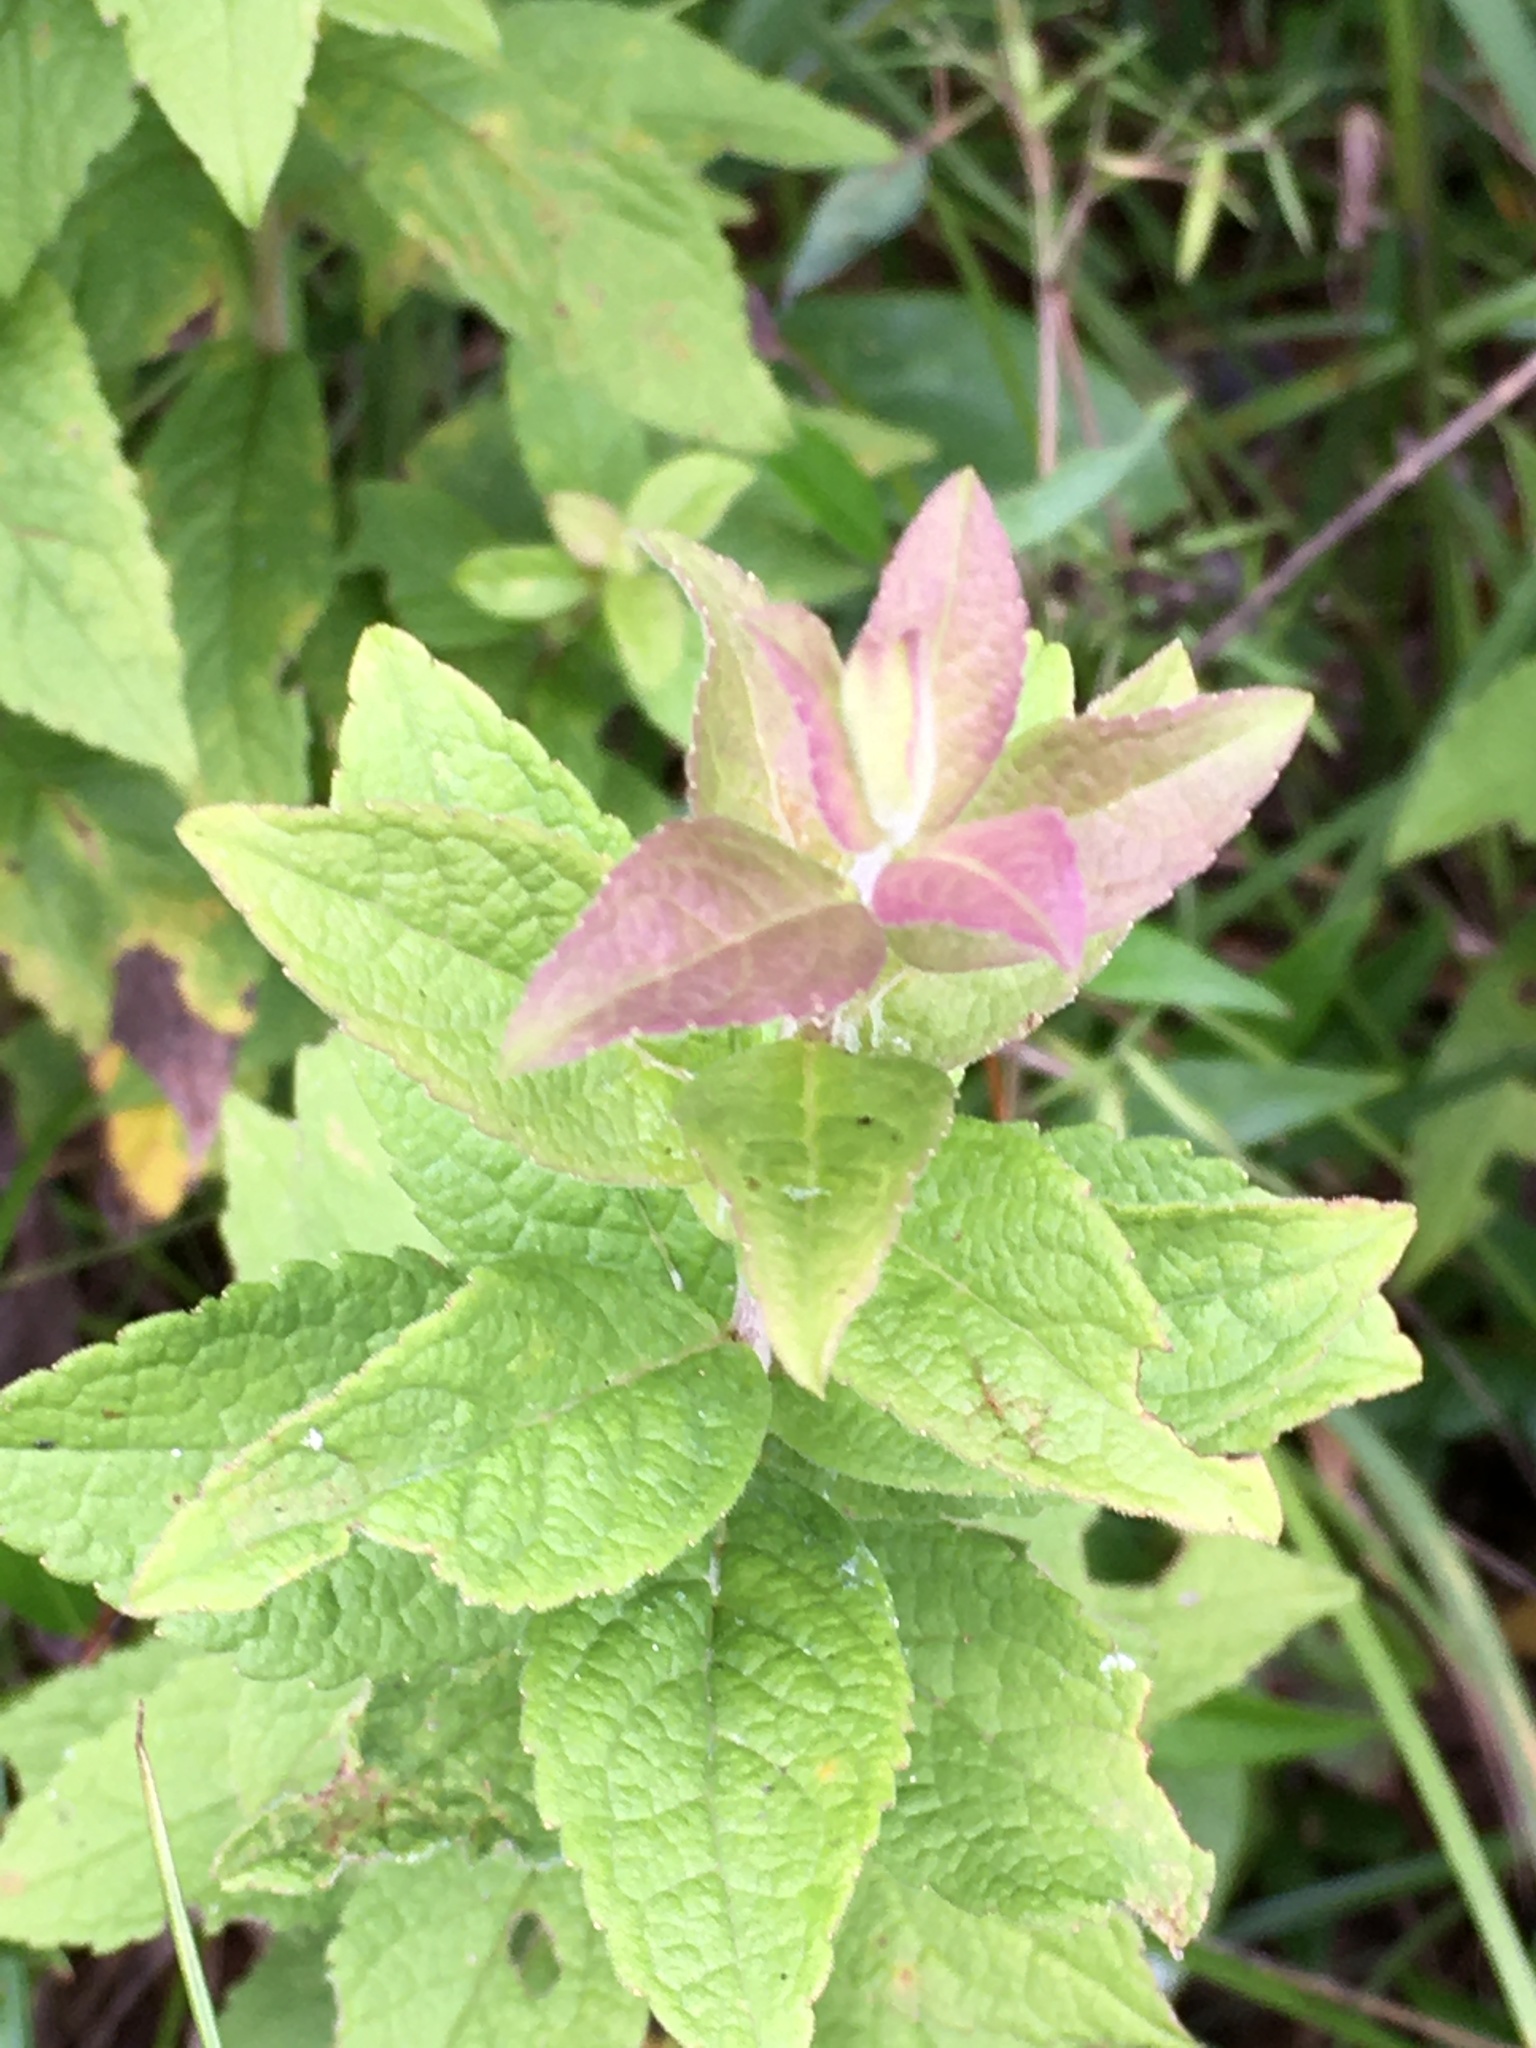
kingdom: Plantae
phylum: Tracheophyta
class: Magnoliopsida
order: Asterales
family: Asteraceae
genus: Solidago
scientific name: Solidago rugosa
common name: Rough-stemmed goldenrod
